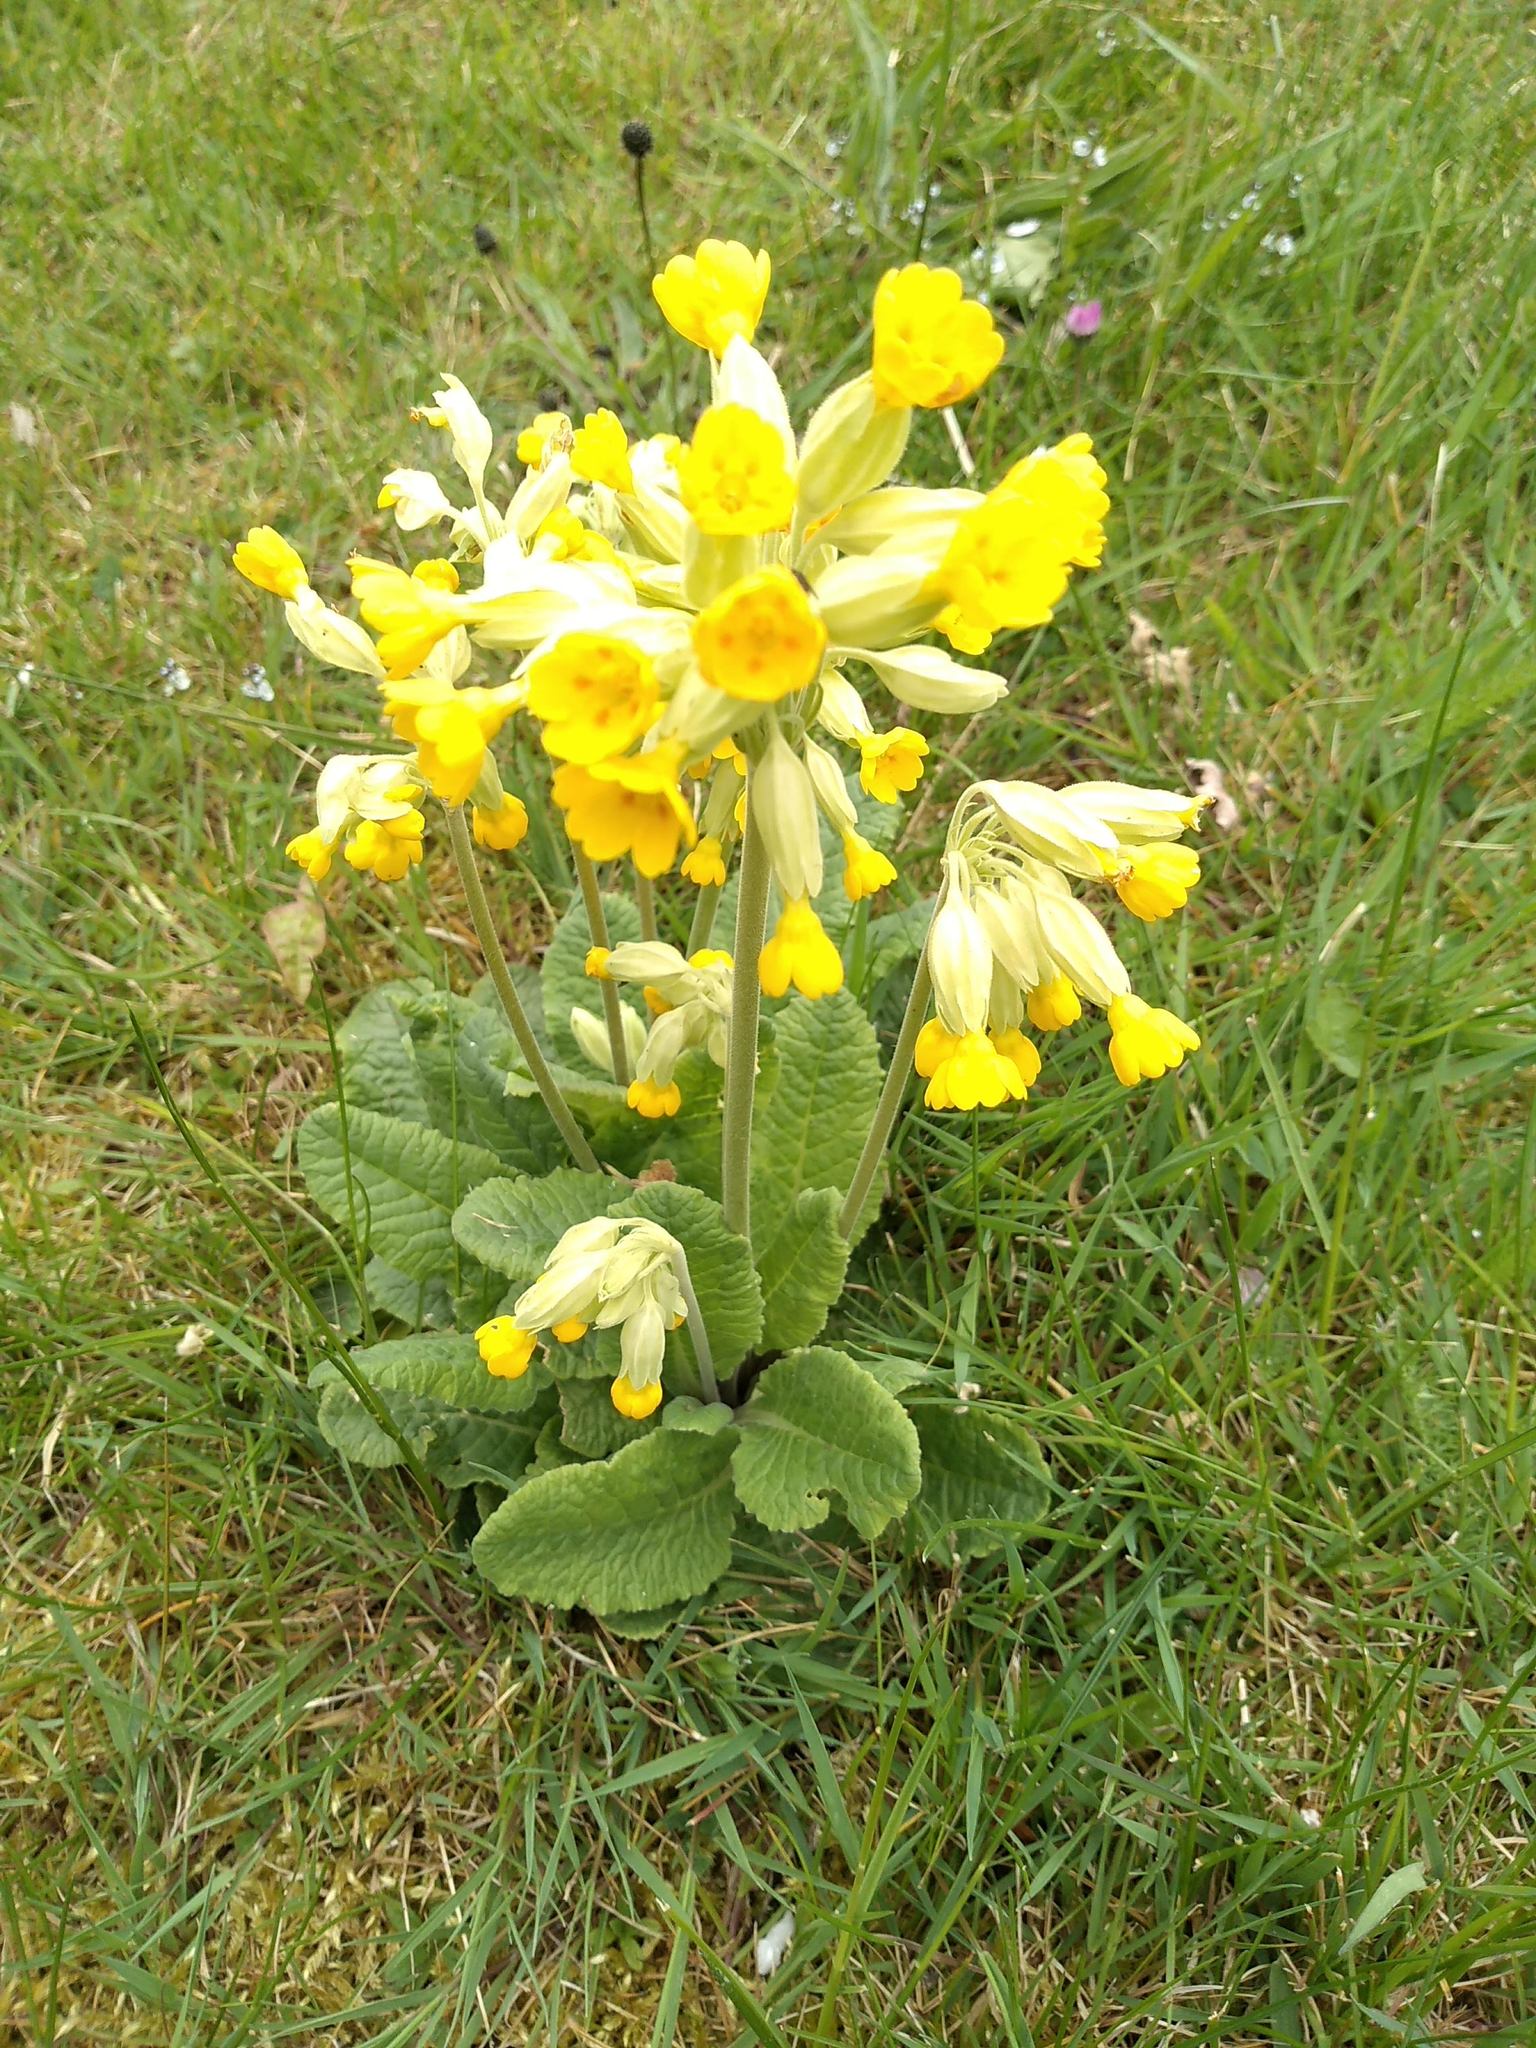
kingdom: Plantae
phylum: Tracheophyta
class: Magnoliopsida
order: Ericales
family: Primulaceae
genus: Primula
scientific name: Primula veris
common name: Cowslip
